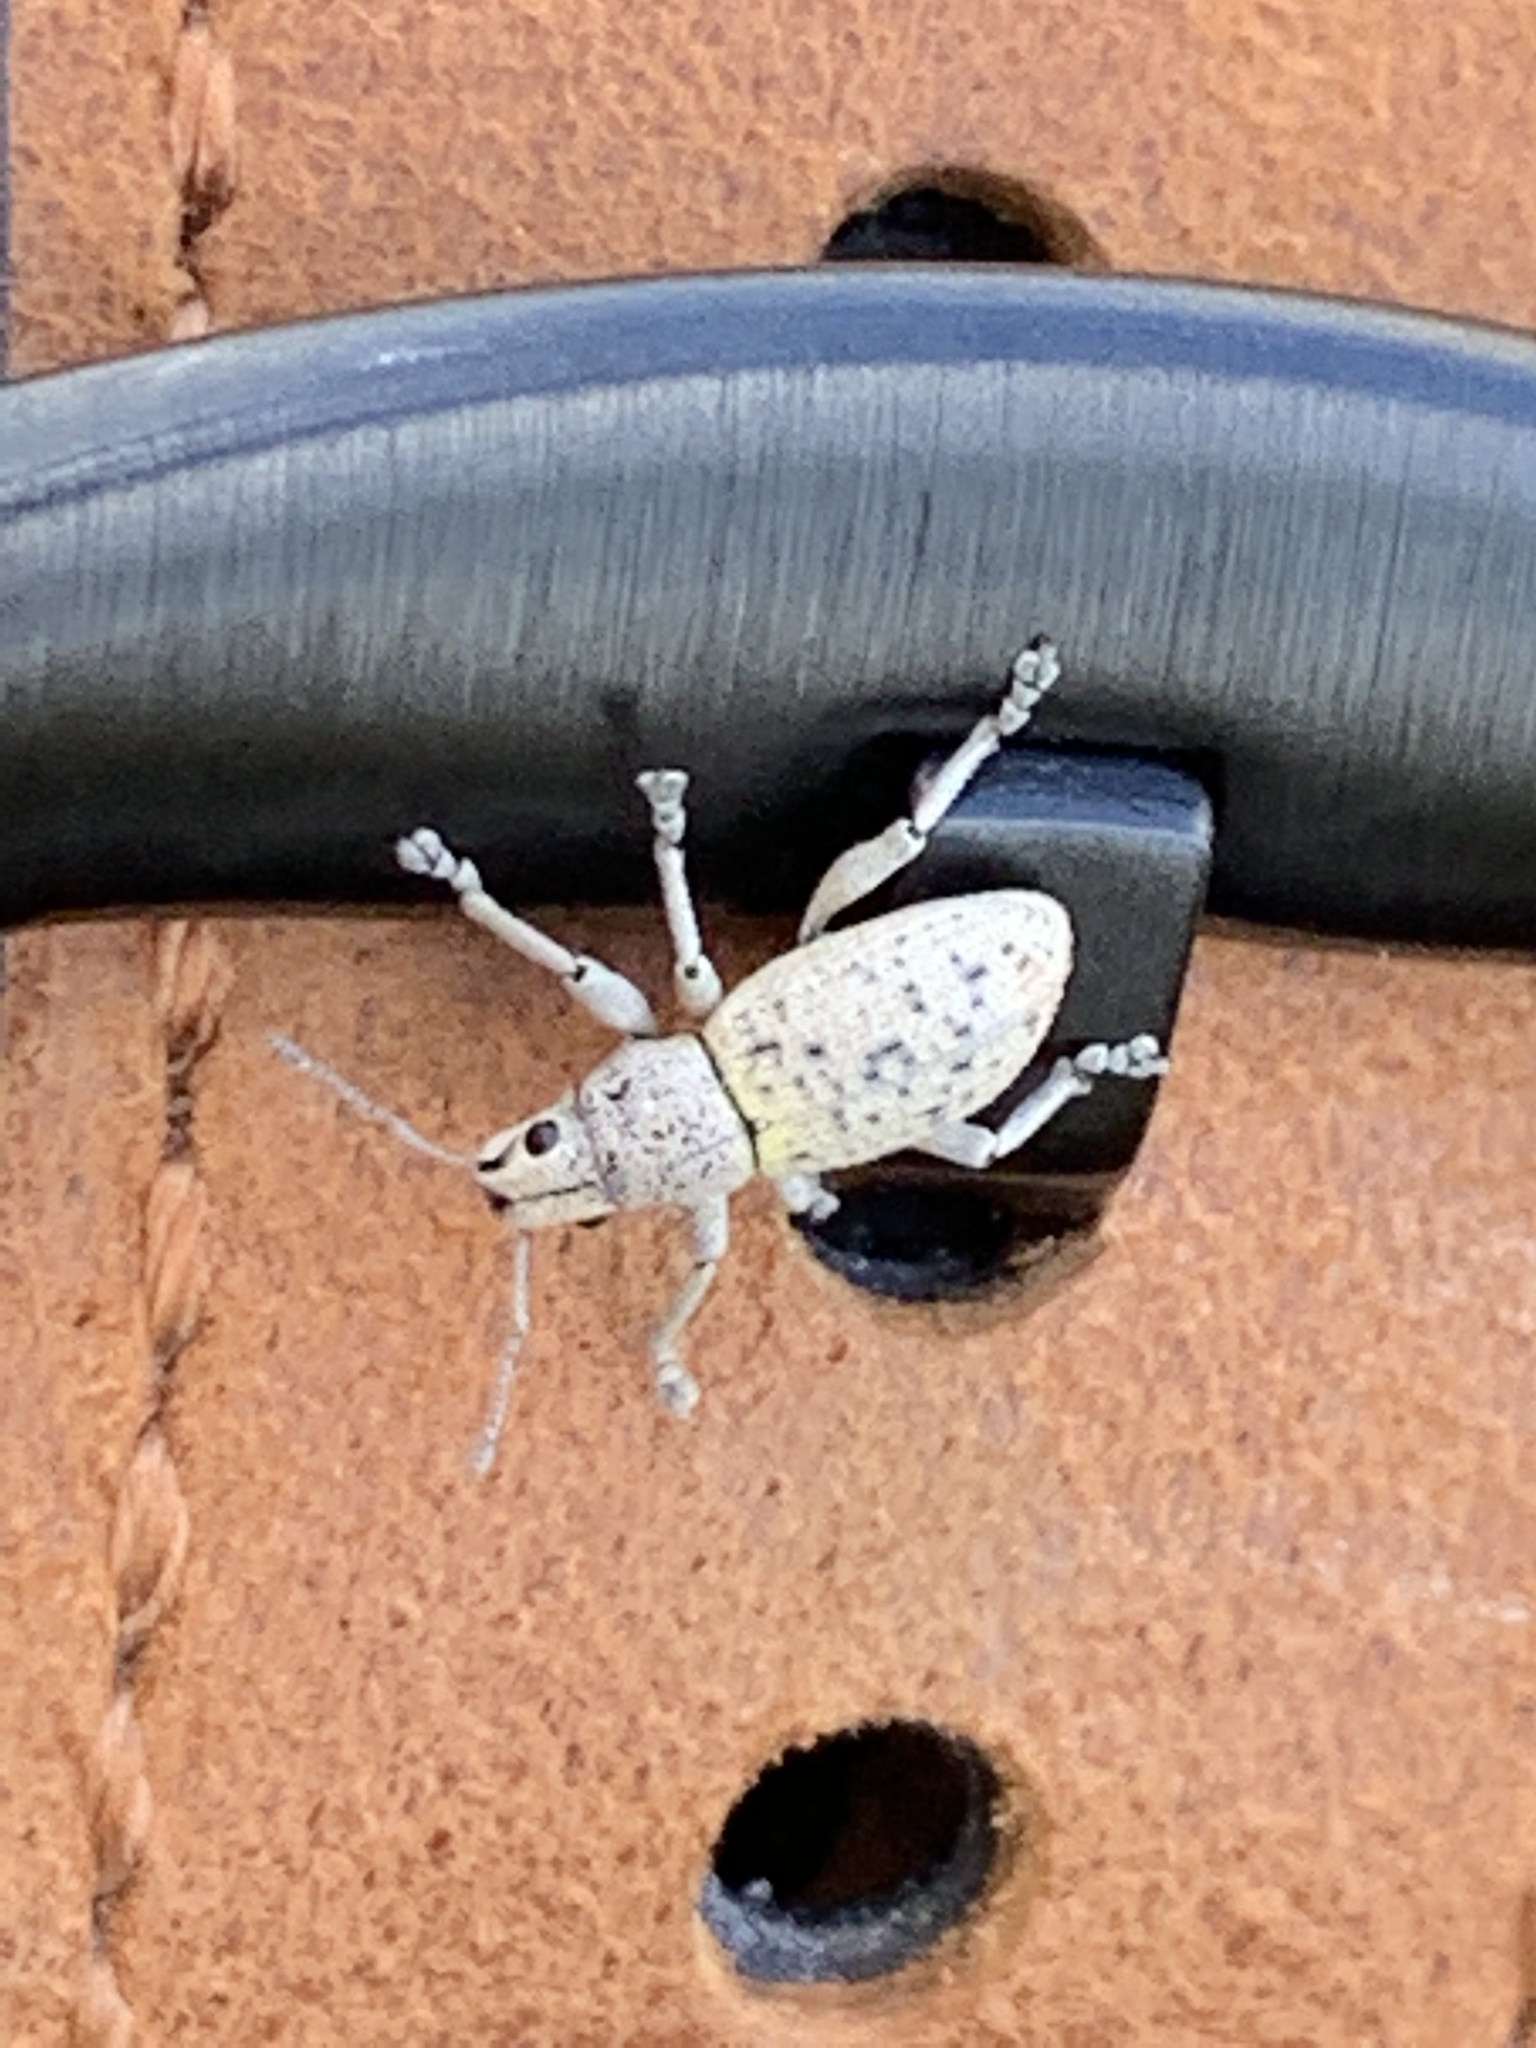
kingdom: Animalia
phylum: Arthropoda
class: Insecta
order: Coleoptera
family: Curculionidae
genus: Artipus
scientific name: Artipus floridanus
